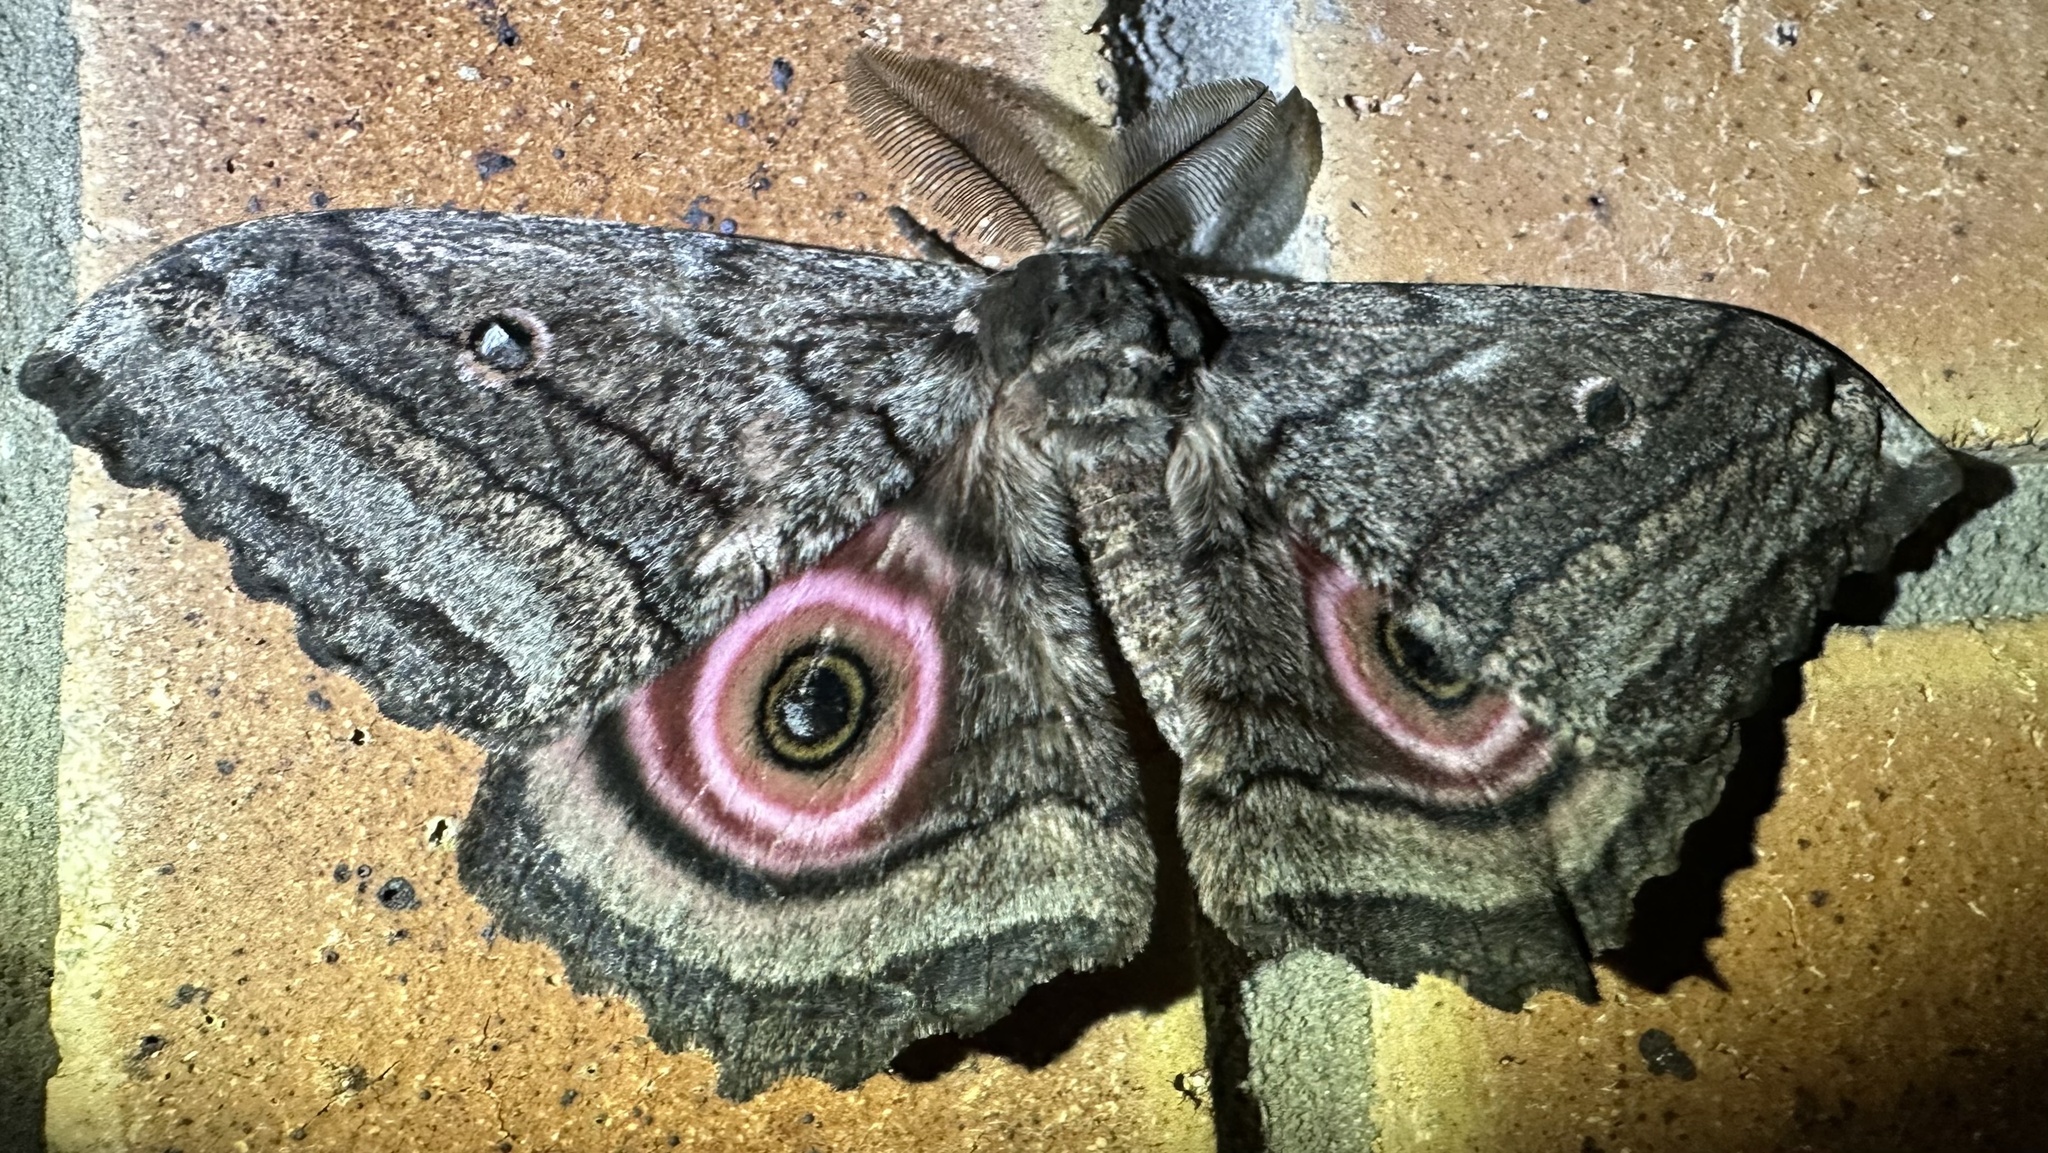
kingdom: Animalia
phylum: Arthropoda
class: Insecta
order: Lepidoptera
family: Saturniidae
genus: Gynanisa
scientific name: Gynanisa maja
